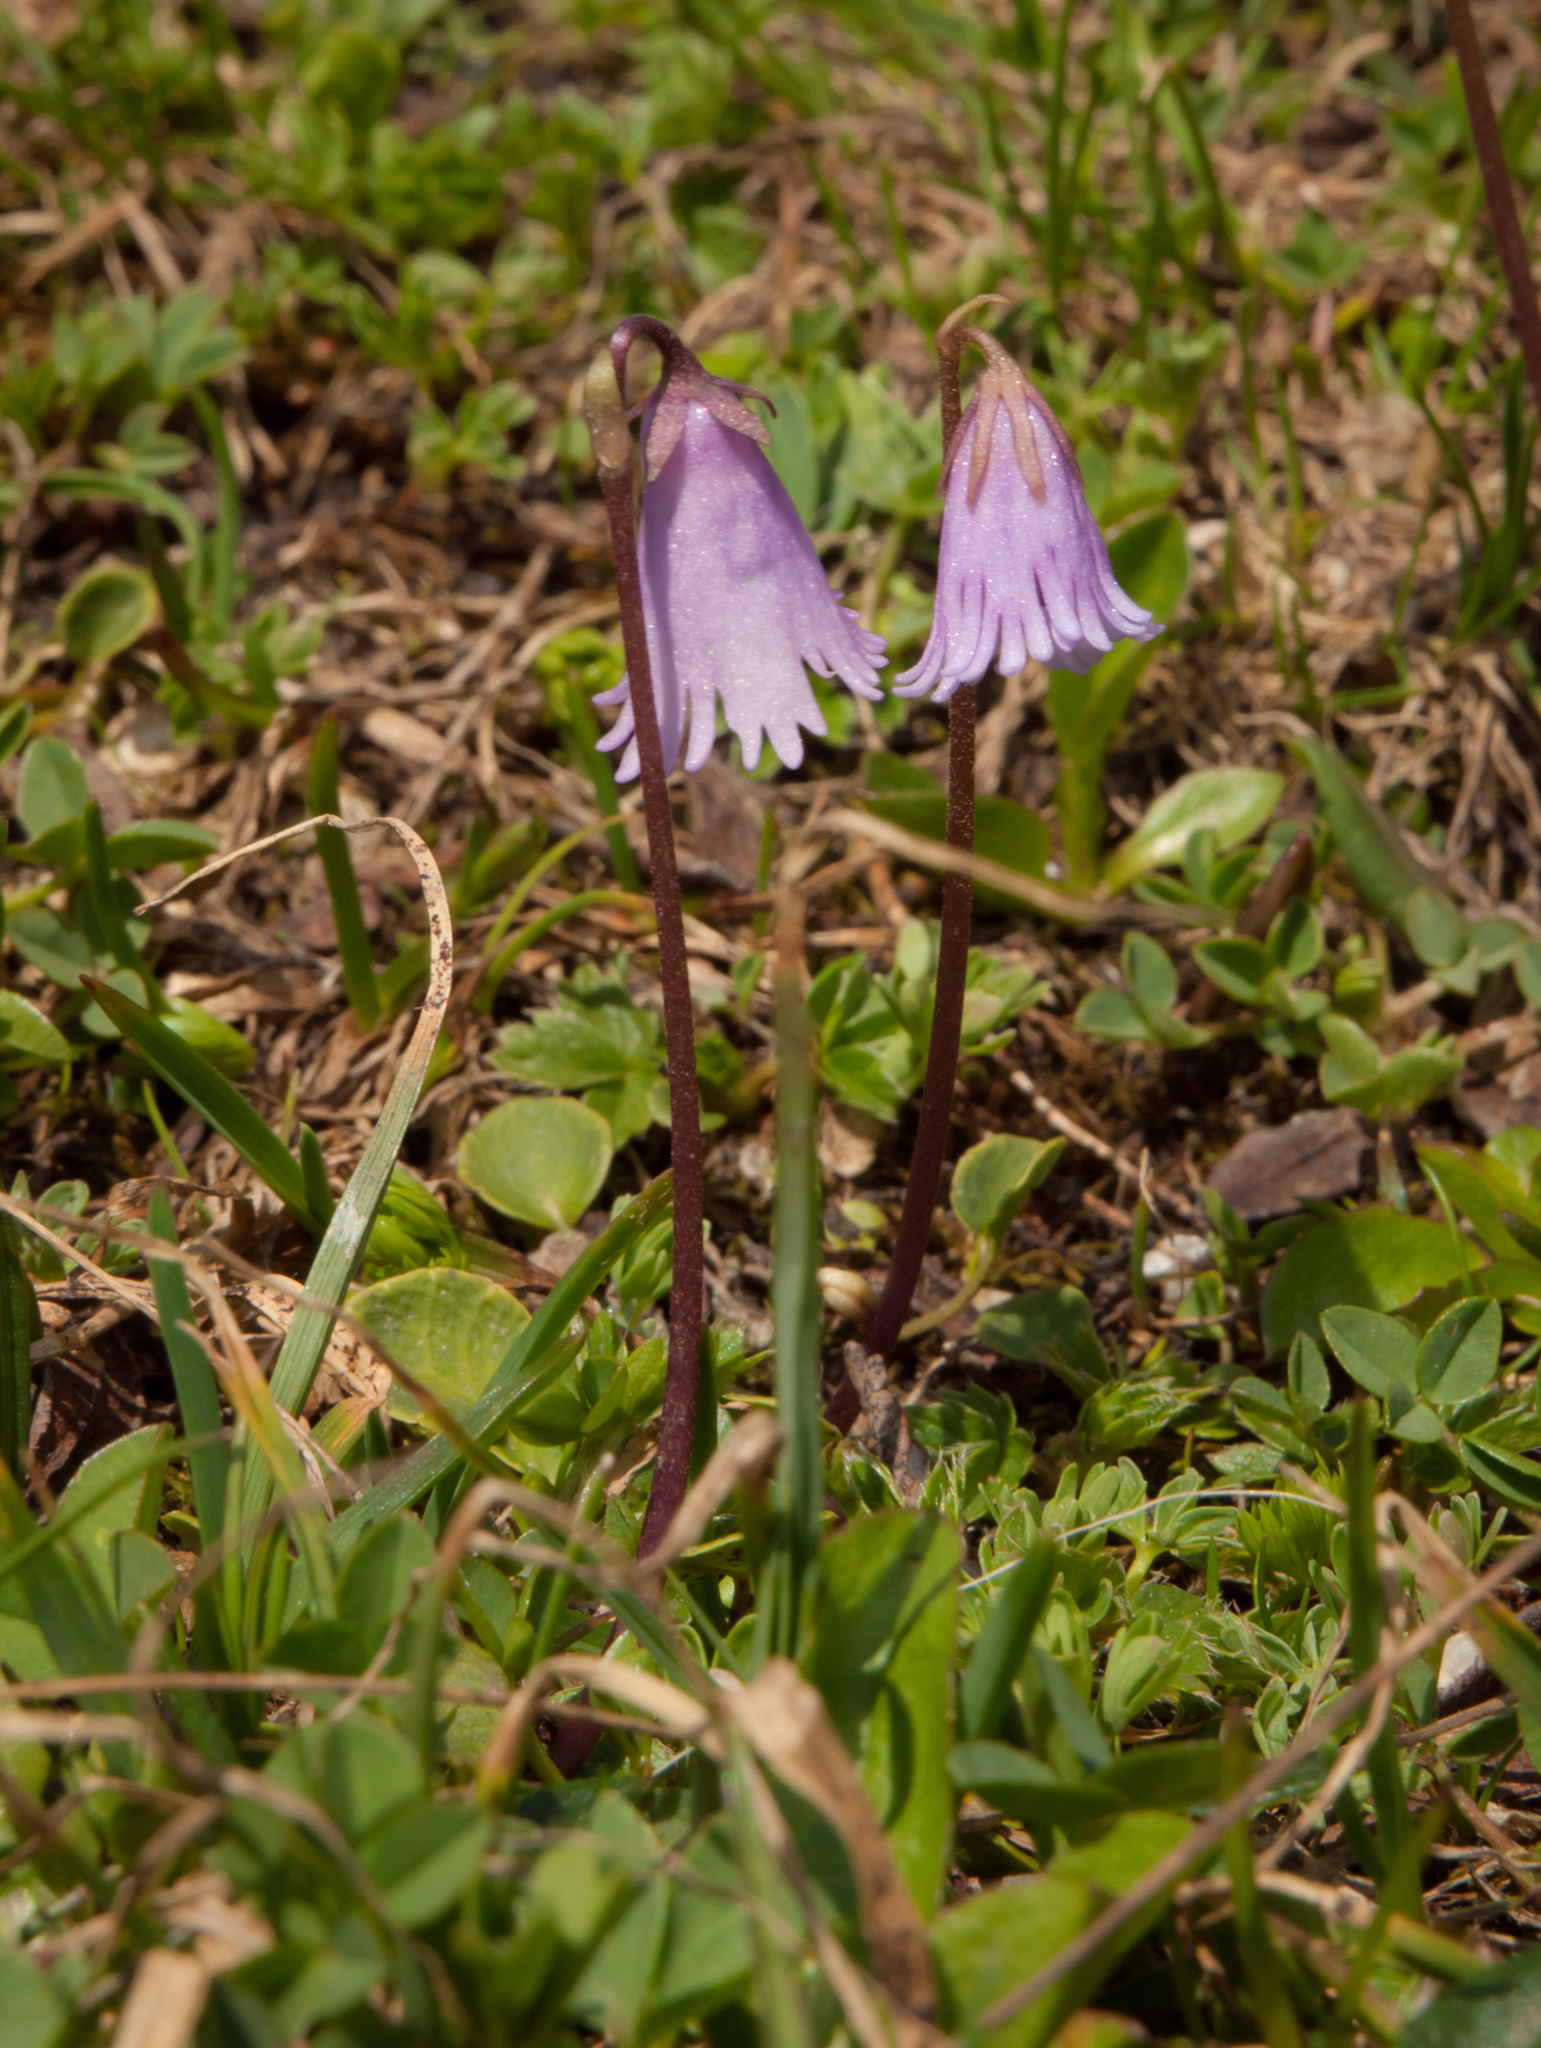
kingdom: Plantae
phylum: Tracheophyta
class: Magnoliopsida
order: Ericales
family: Primulaceae
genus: Soldanella
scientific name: Soldanella alpicola
